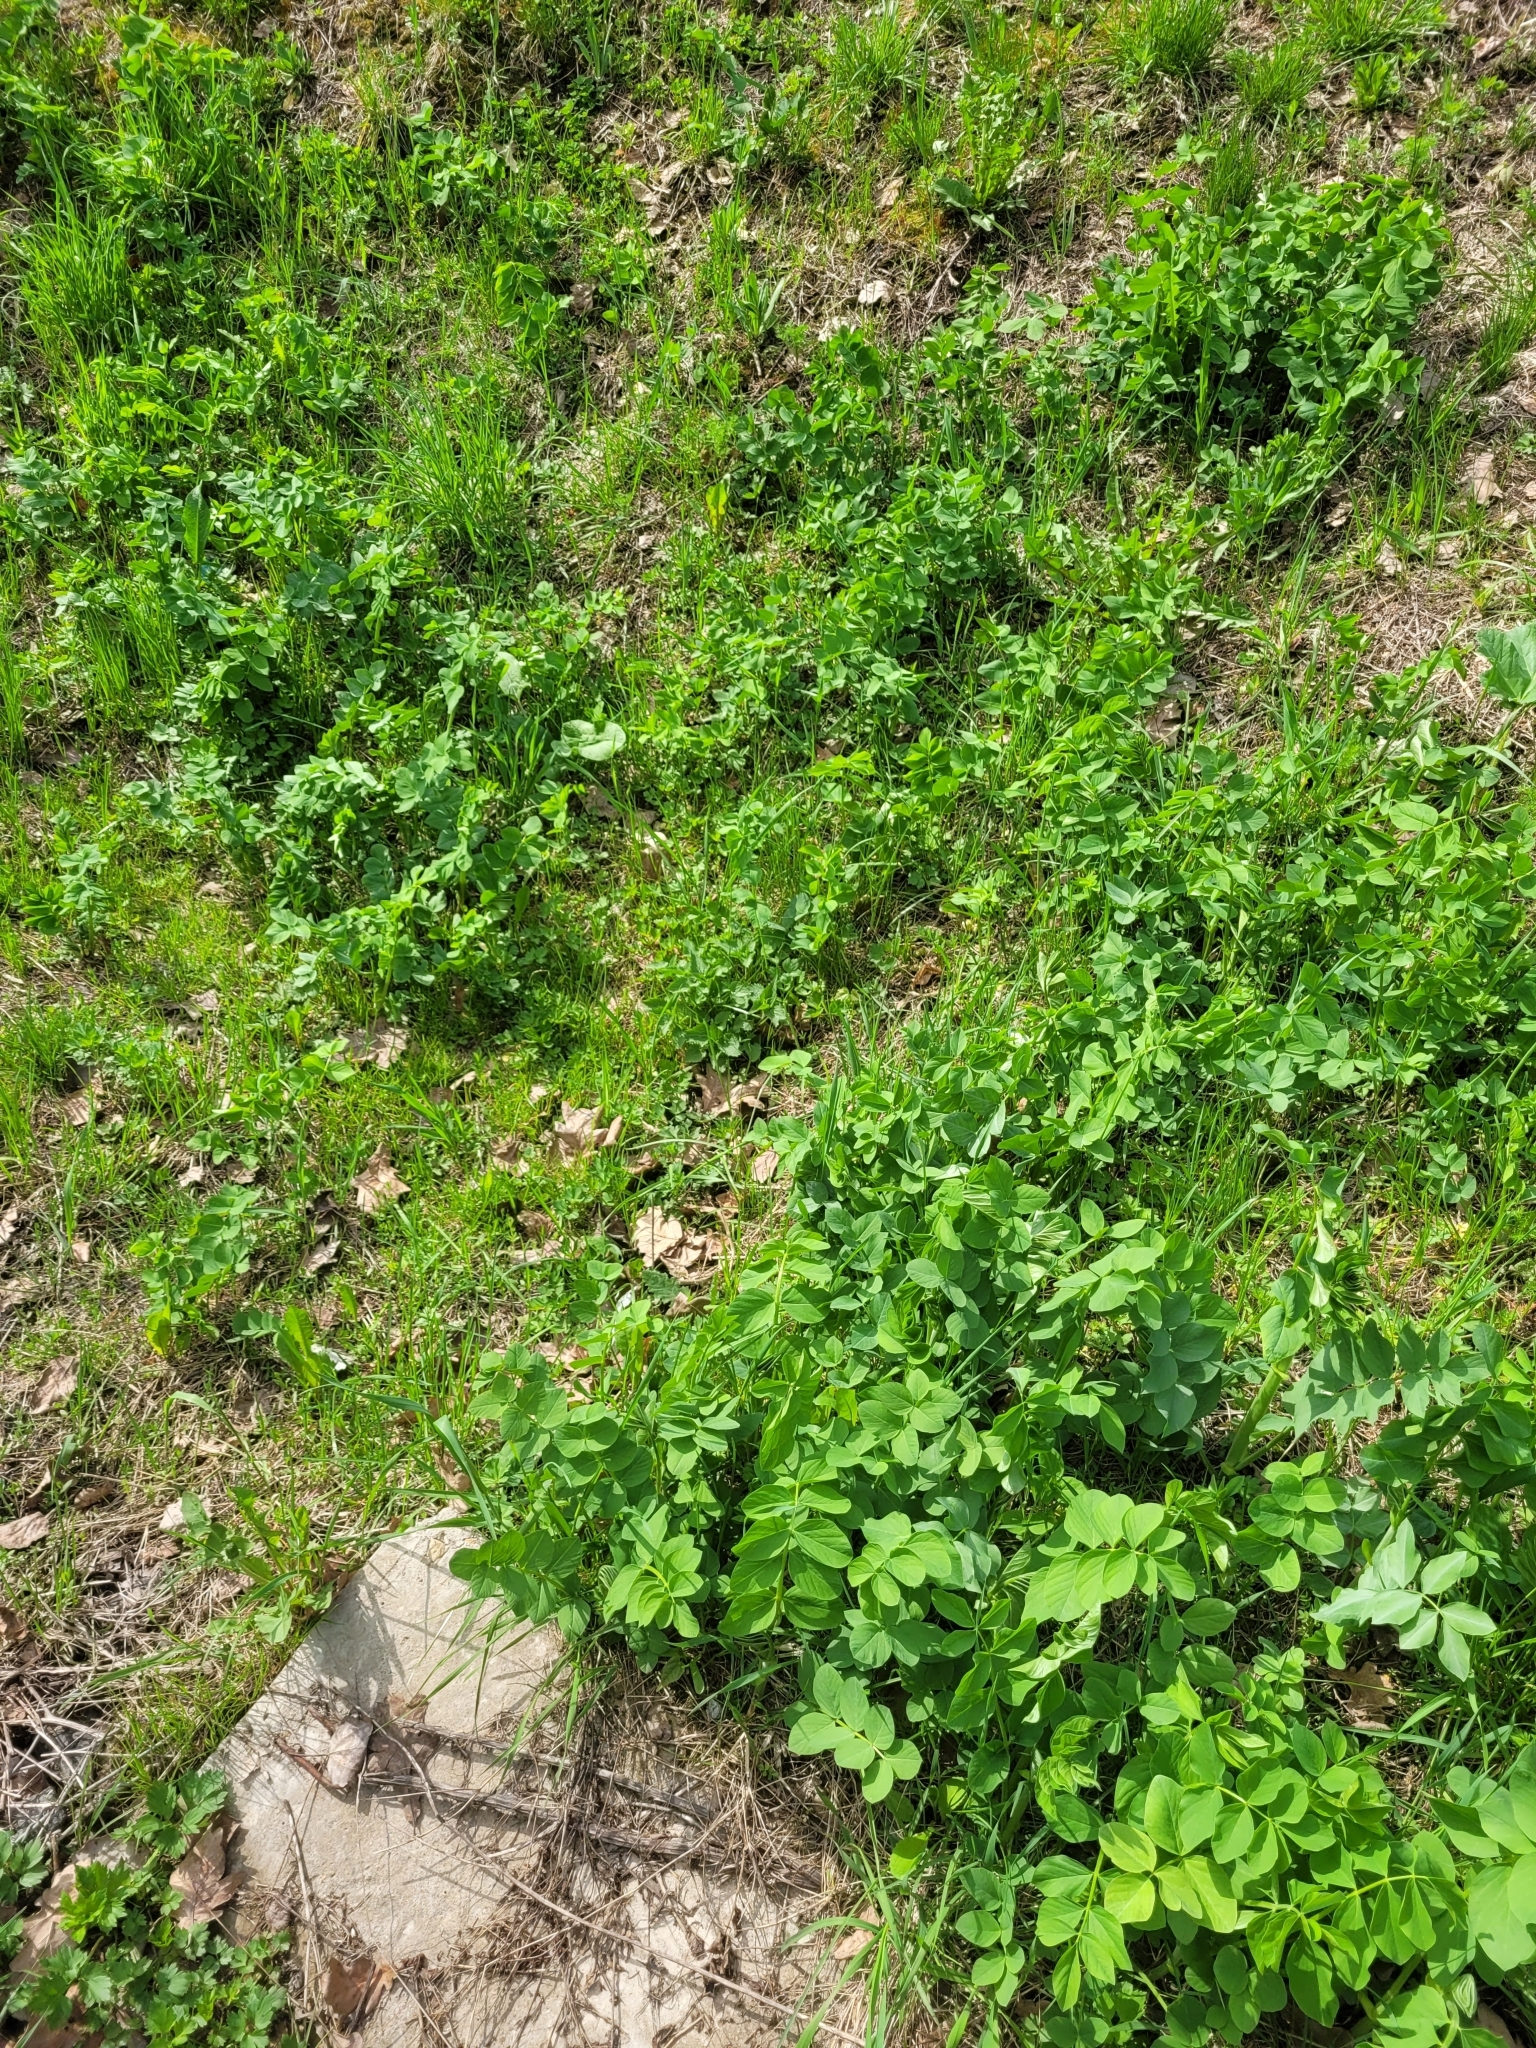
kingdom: Plantae
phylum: Tracheophyta
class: Magnoliopsida
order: Fabales
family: Fabaceae
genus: Galega
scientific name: Galega orientalis
